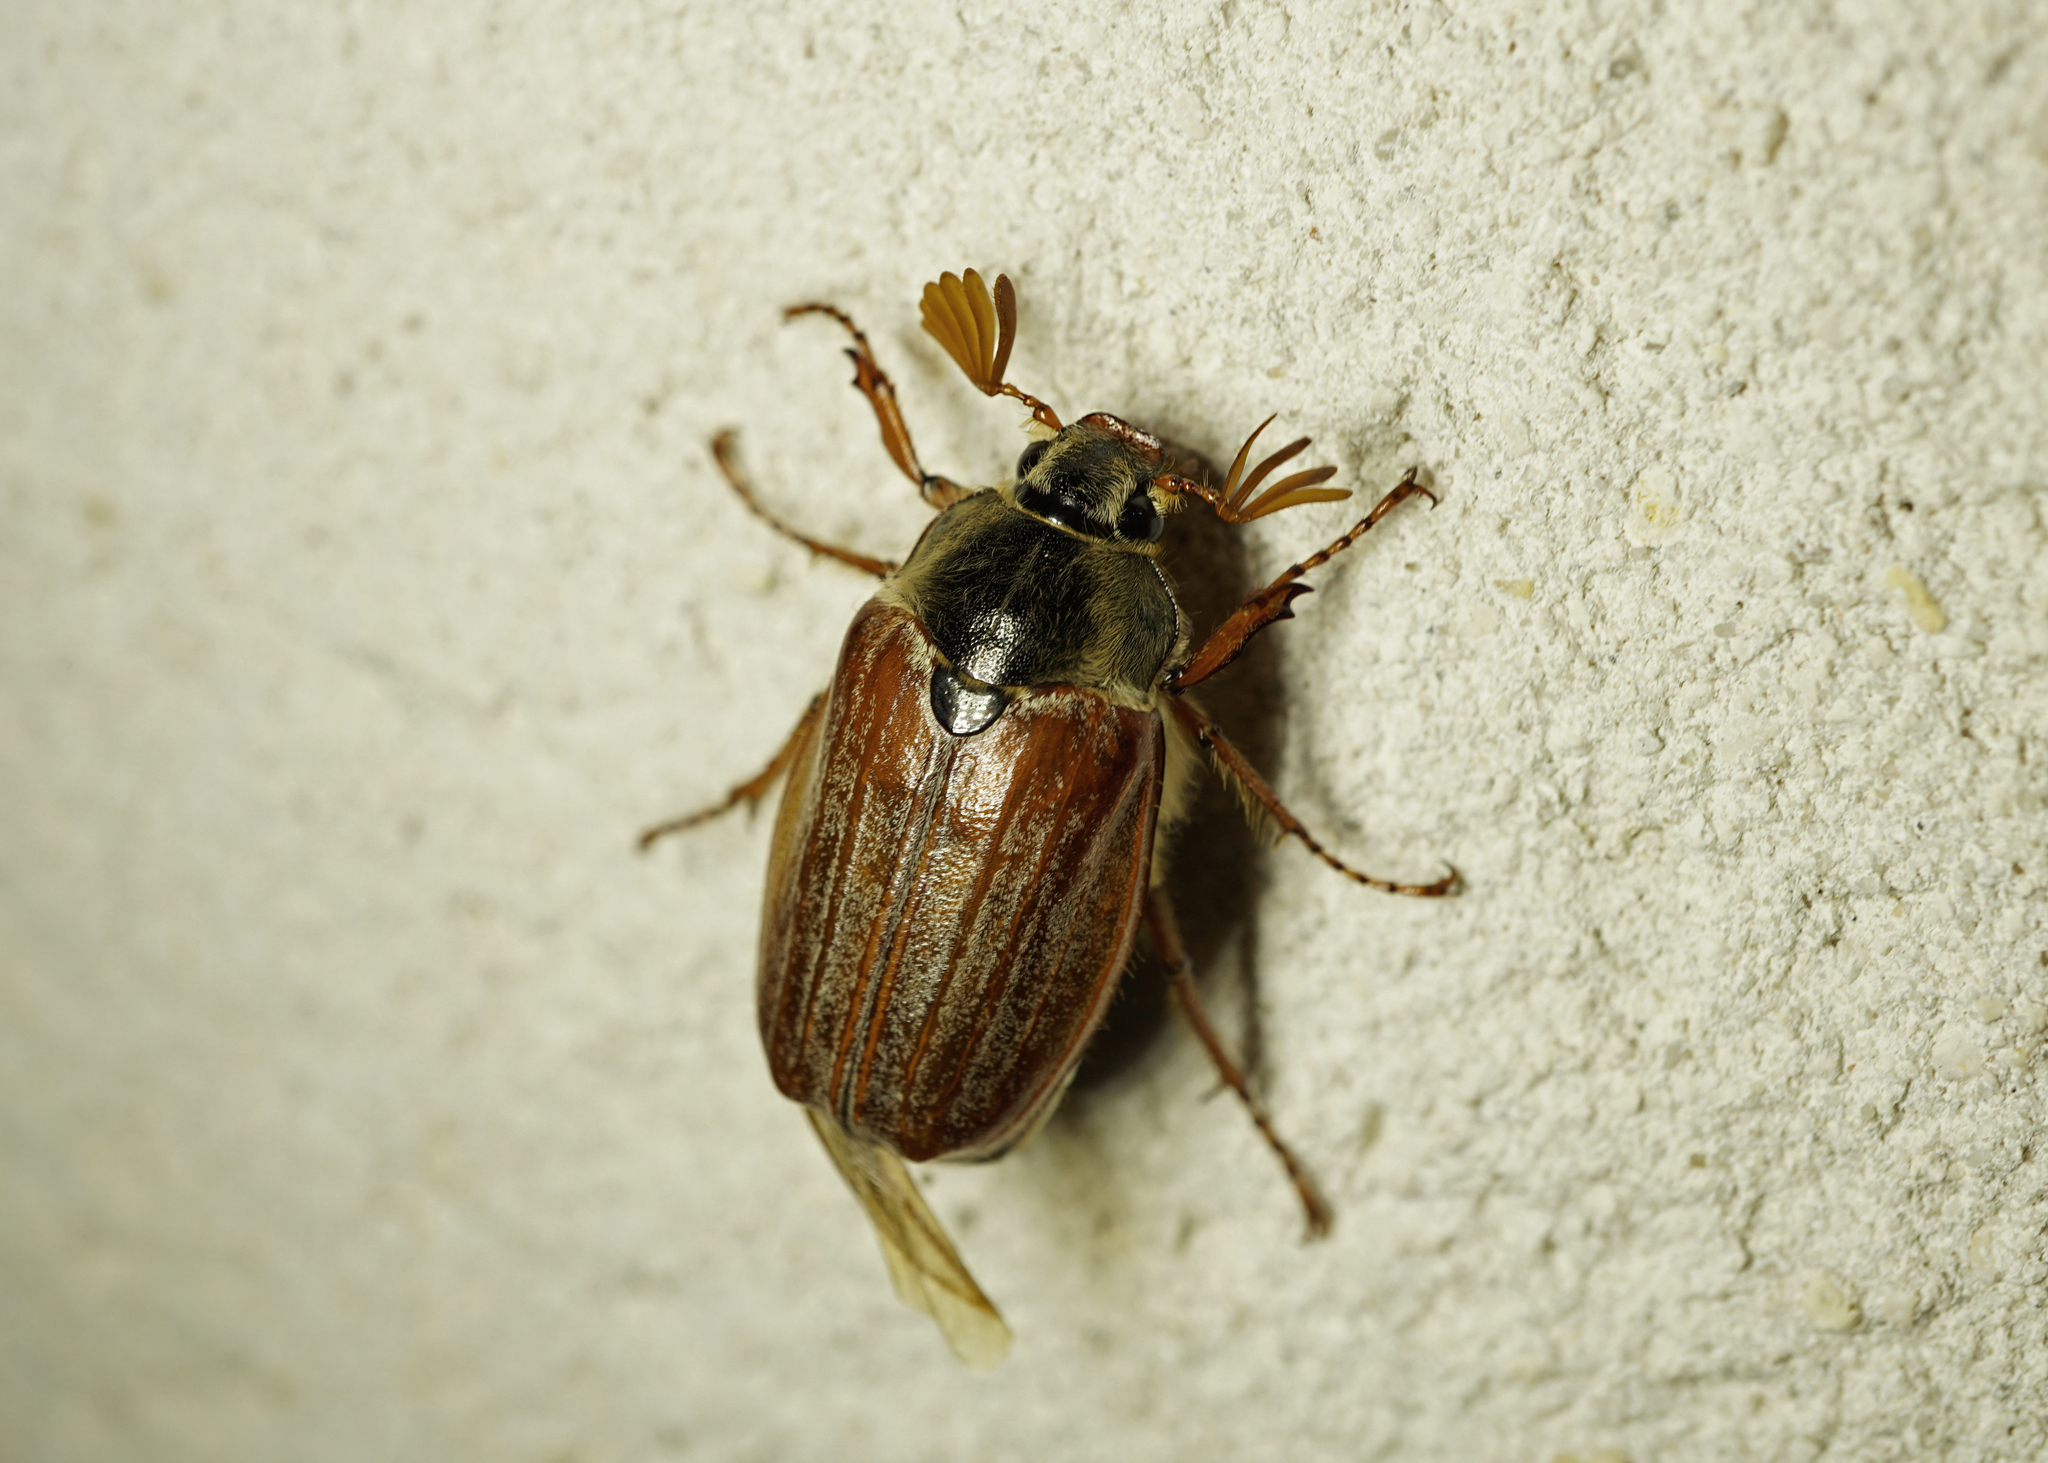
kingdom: Animalia
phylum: Arthropoda
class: Insecta
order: Coleoptera
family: Scarabaeidae
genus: Melolontha
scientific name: Melolontha melolontha
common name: Cockchafer maybeetle
